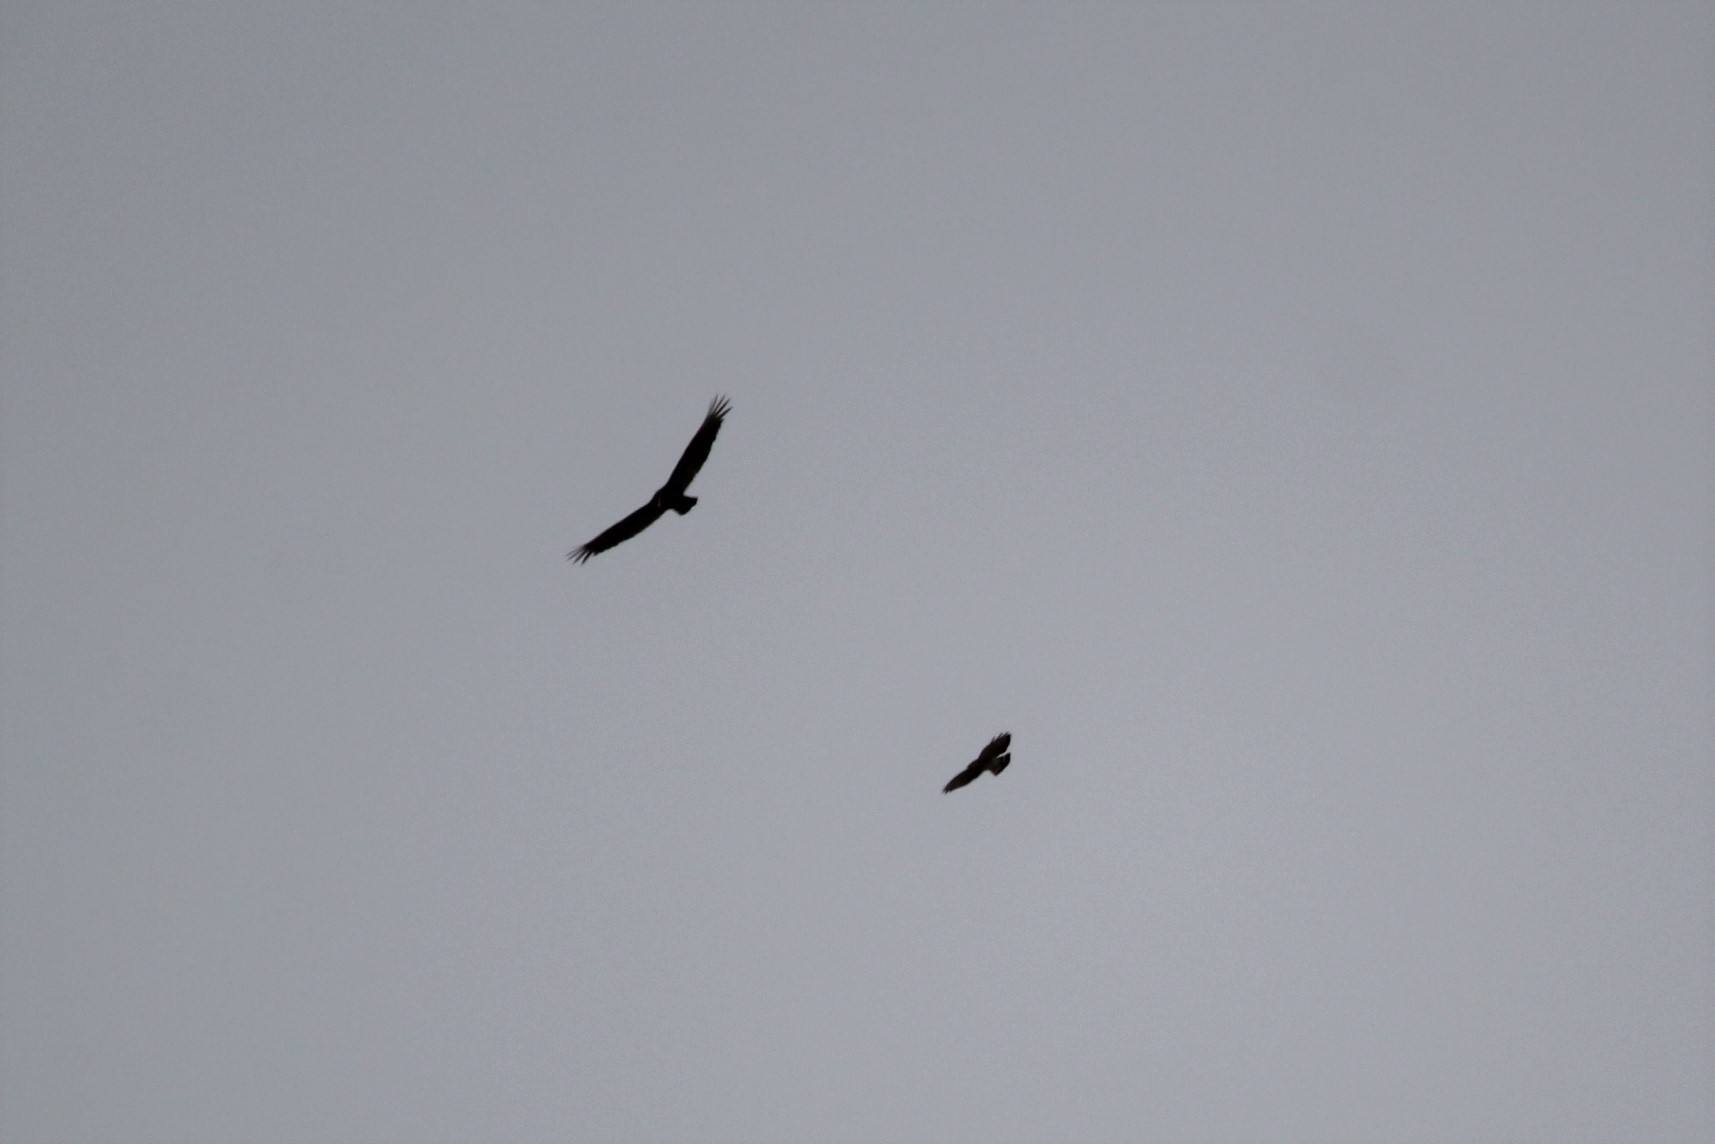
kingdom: Animalia
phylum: Chordata
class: Aves
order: Accipitriformes
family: Accipitridae
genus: Buteo
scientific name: Buteo platypterus
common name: Broad-winged hawk
